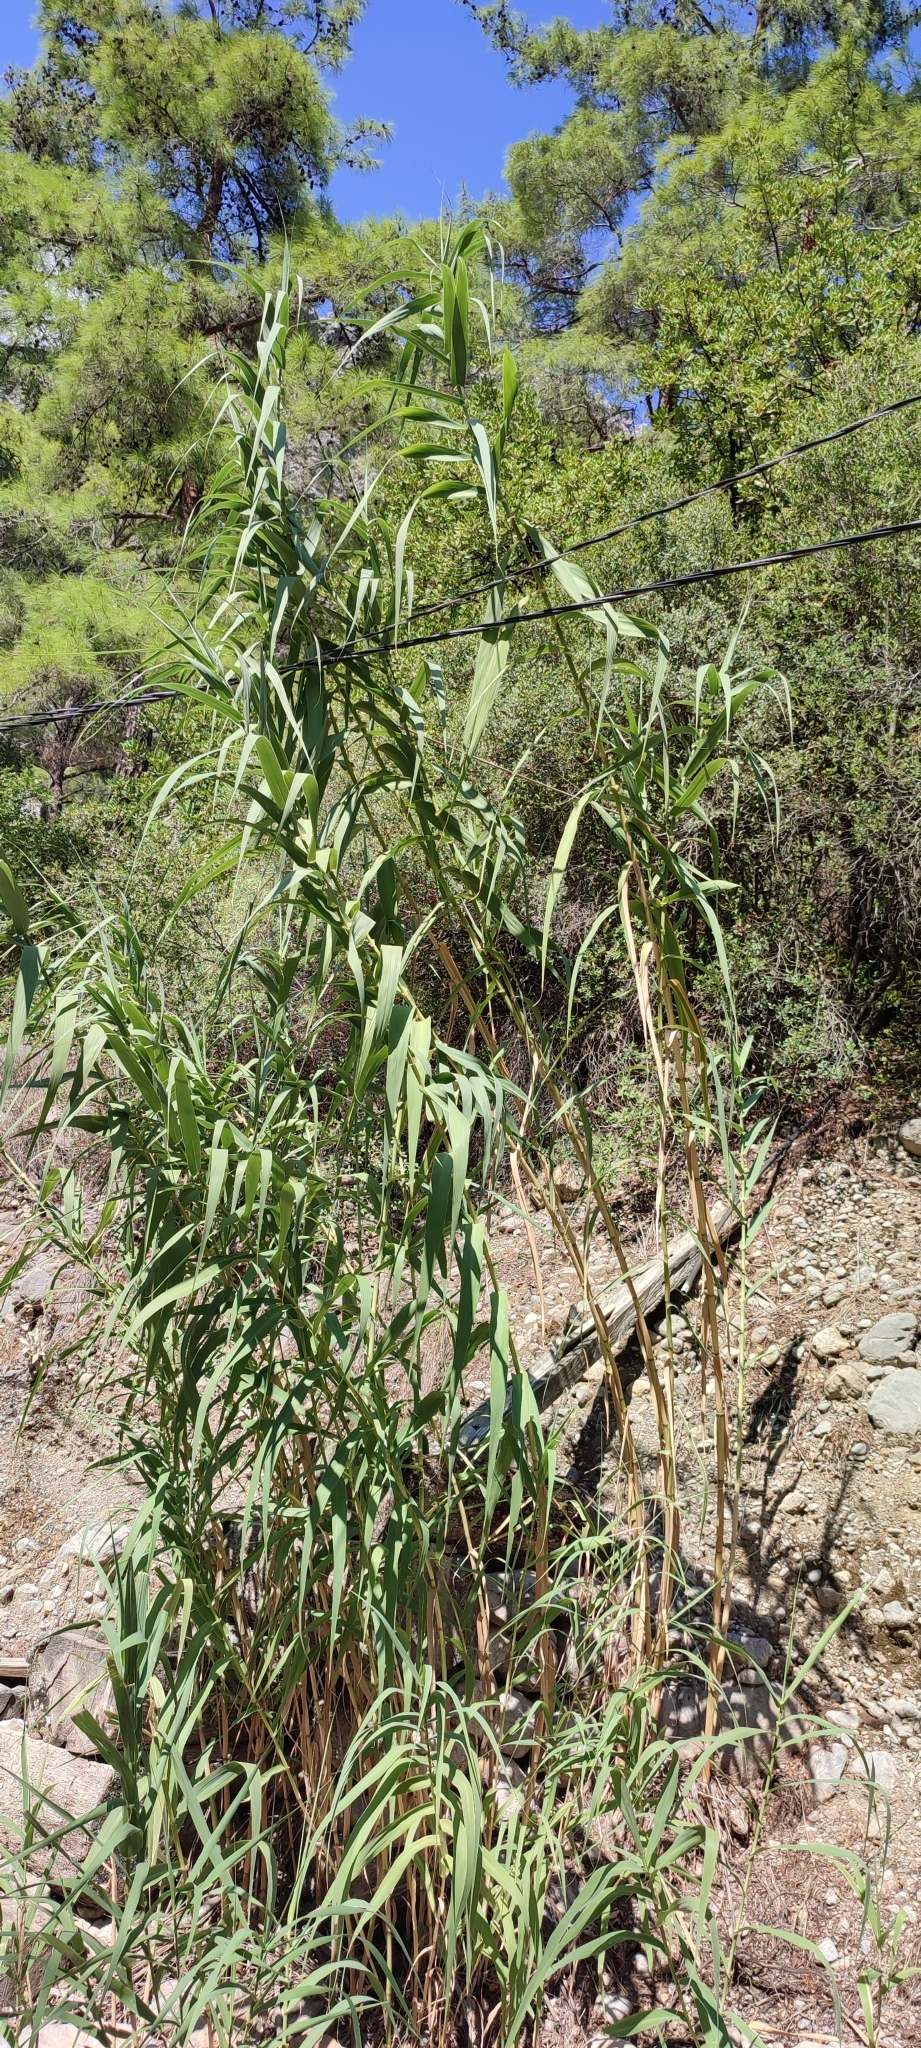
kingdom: Plantae
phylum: Tracheophyta
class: Liliopsida
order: Poales
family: Poaceae
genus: Arundo
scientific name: Arundo donax
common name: Giant reed
